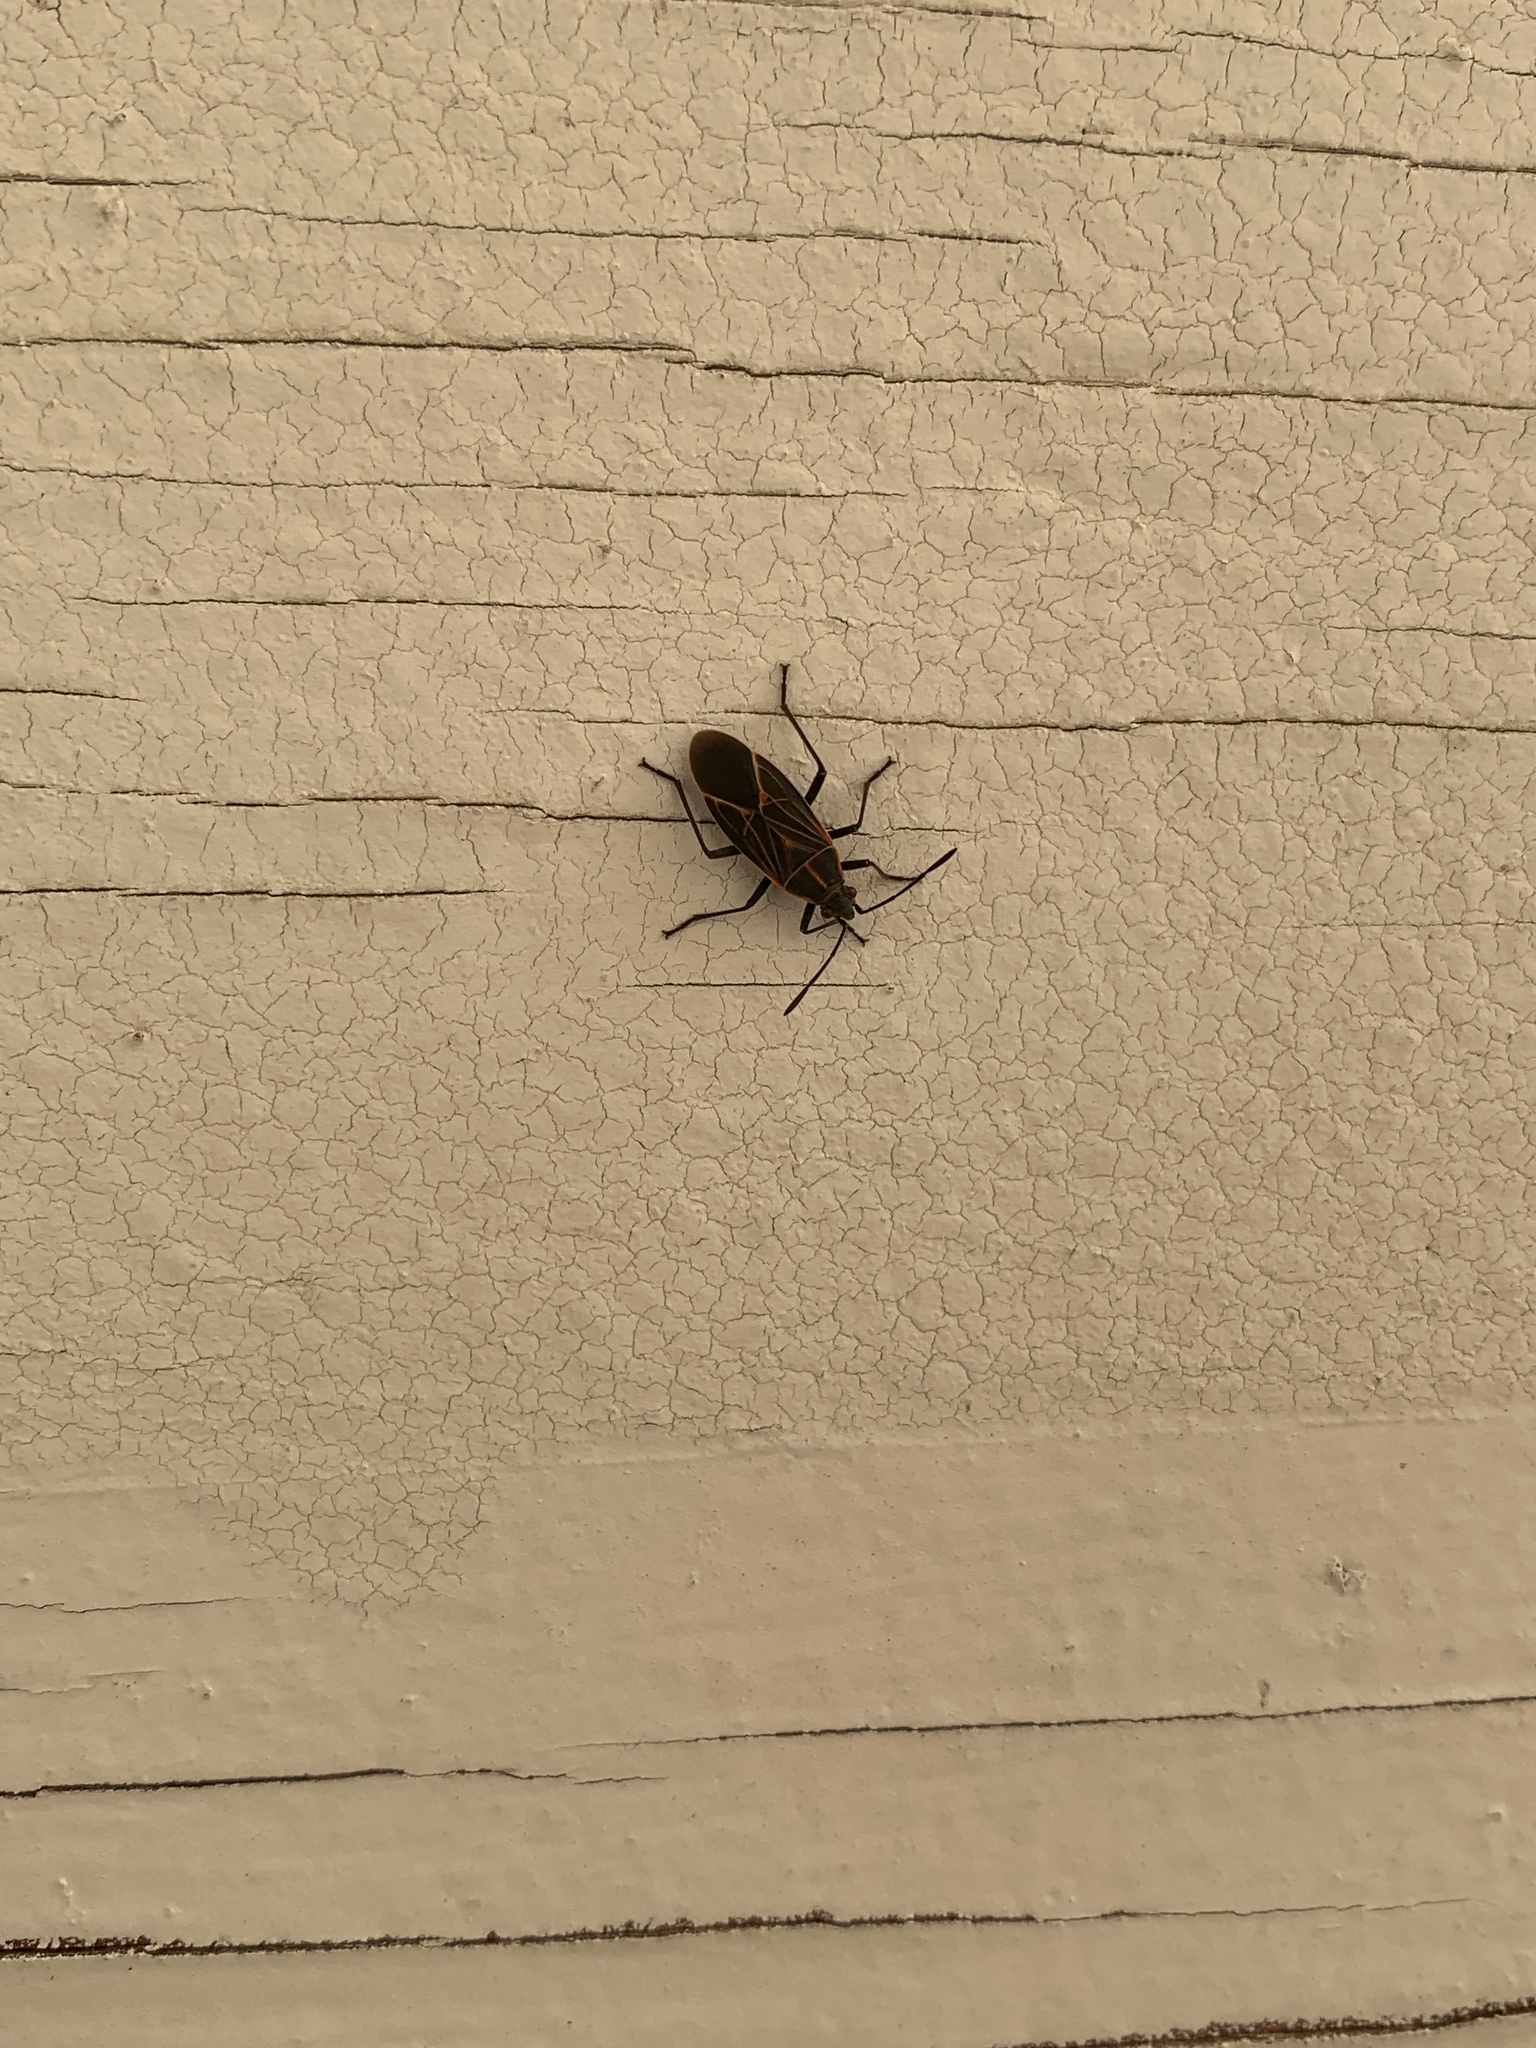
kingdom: Animalia
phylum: Arthropoda
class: Insecta
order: Hemiptera
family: Rhopalidae
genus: Boisea
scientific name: Boisea rubrolineata
